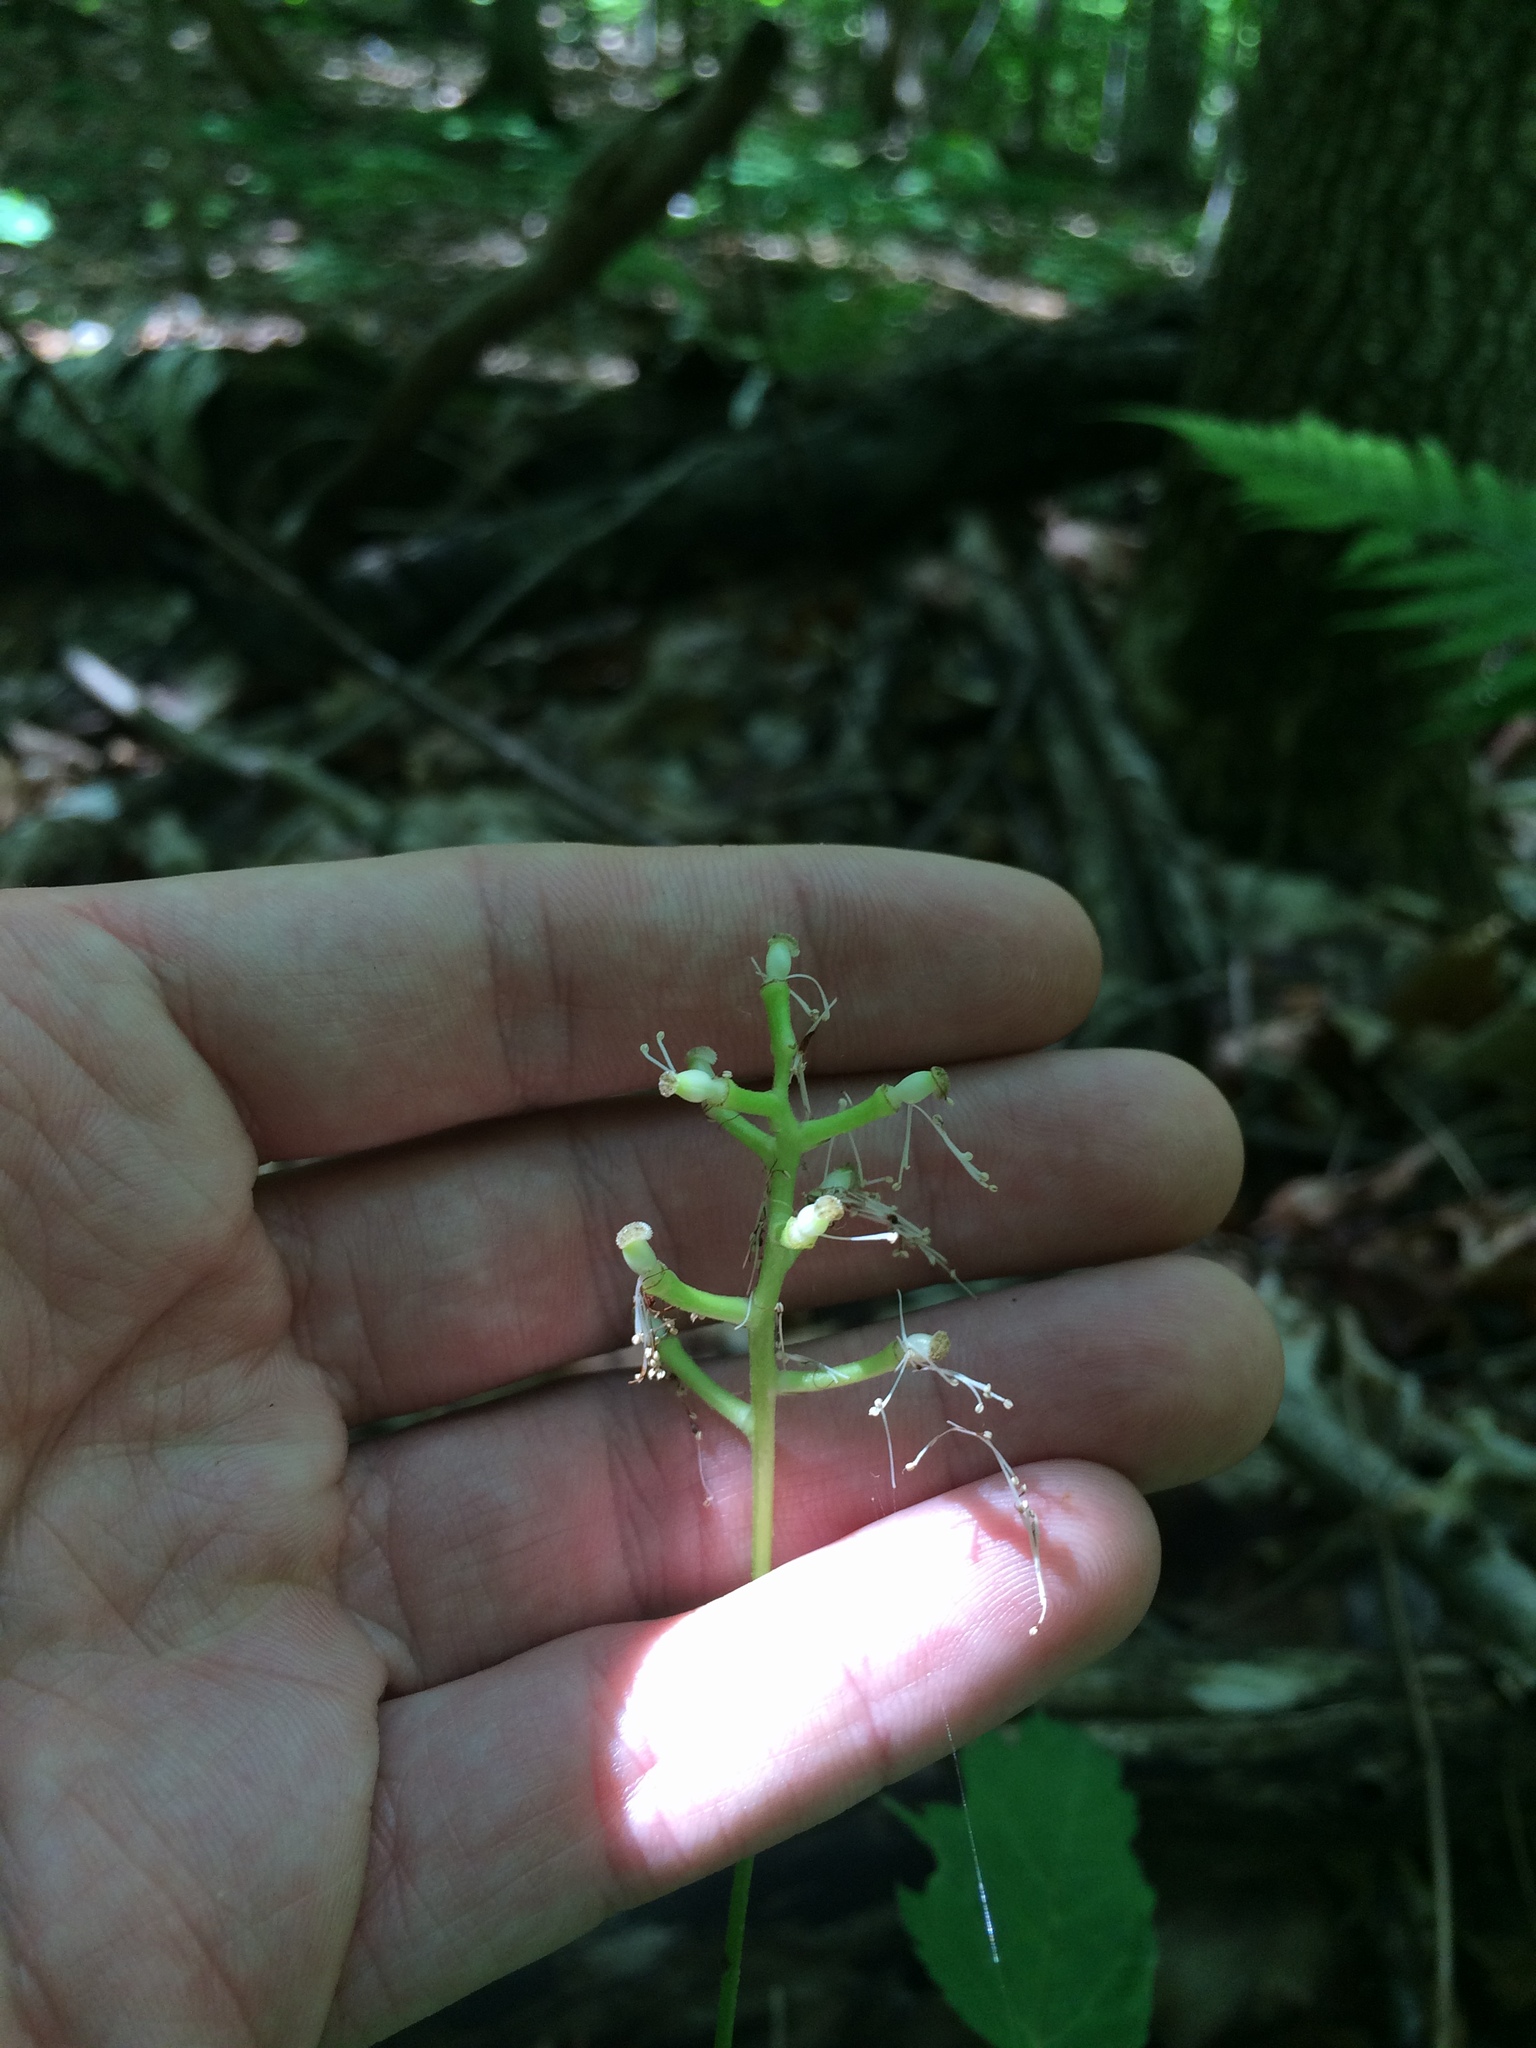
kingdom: Plantae
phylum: Tracheophyta
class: Magnoliopsida
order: Ranunculales
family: Ranunculaceae
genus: Actaea
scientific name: Actaea pachypoda
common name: Doll's-eyes
